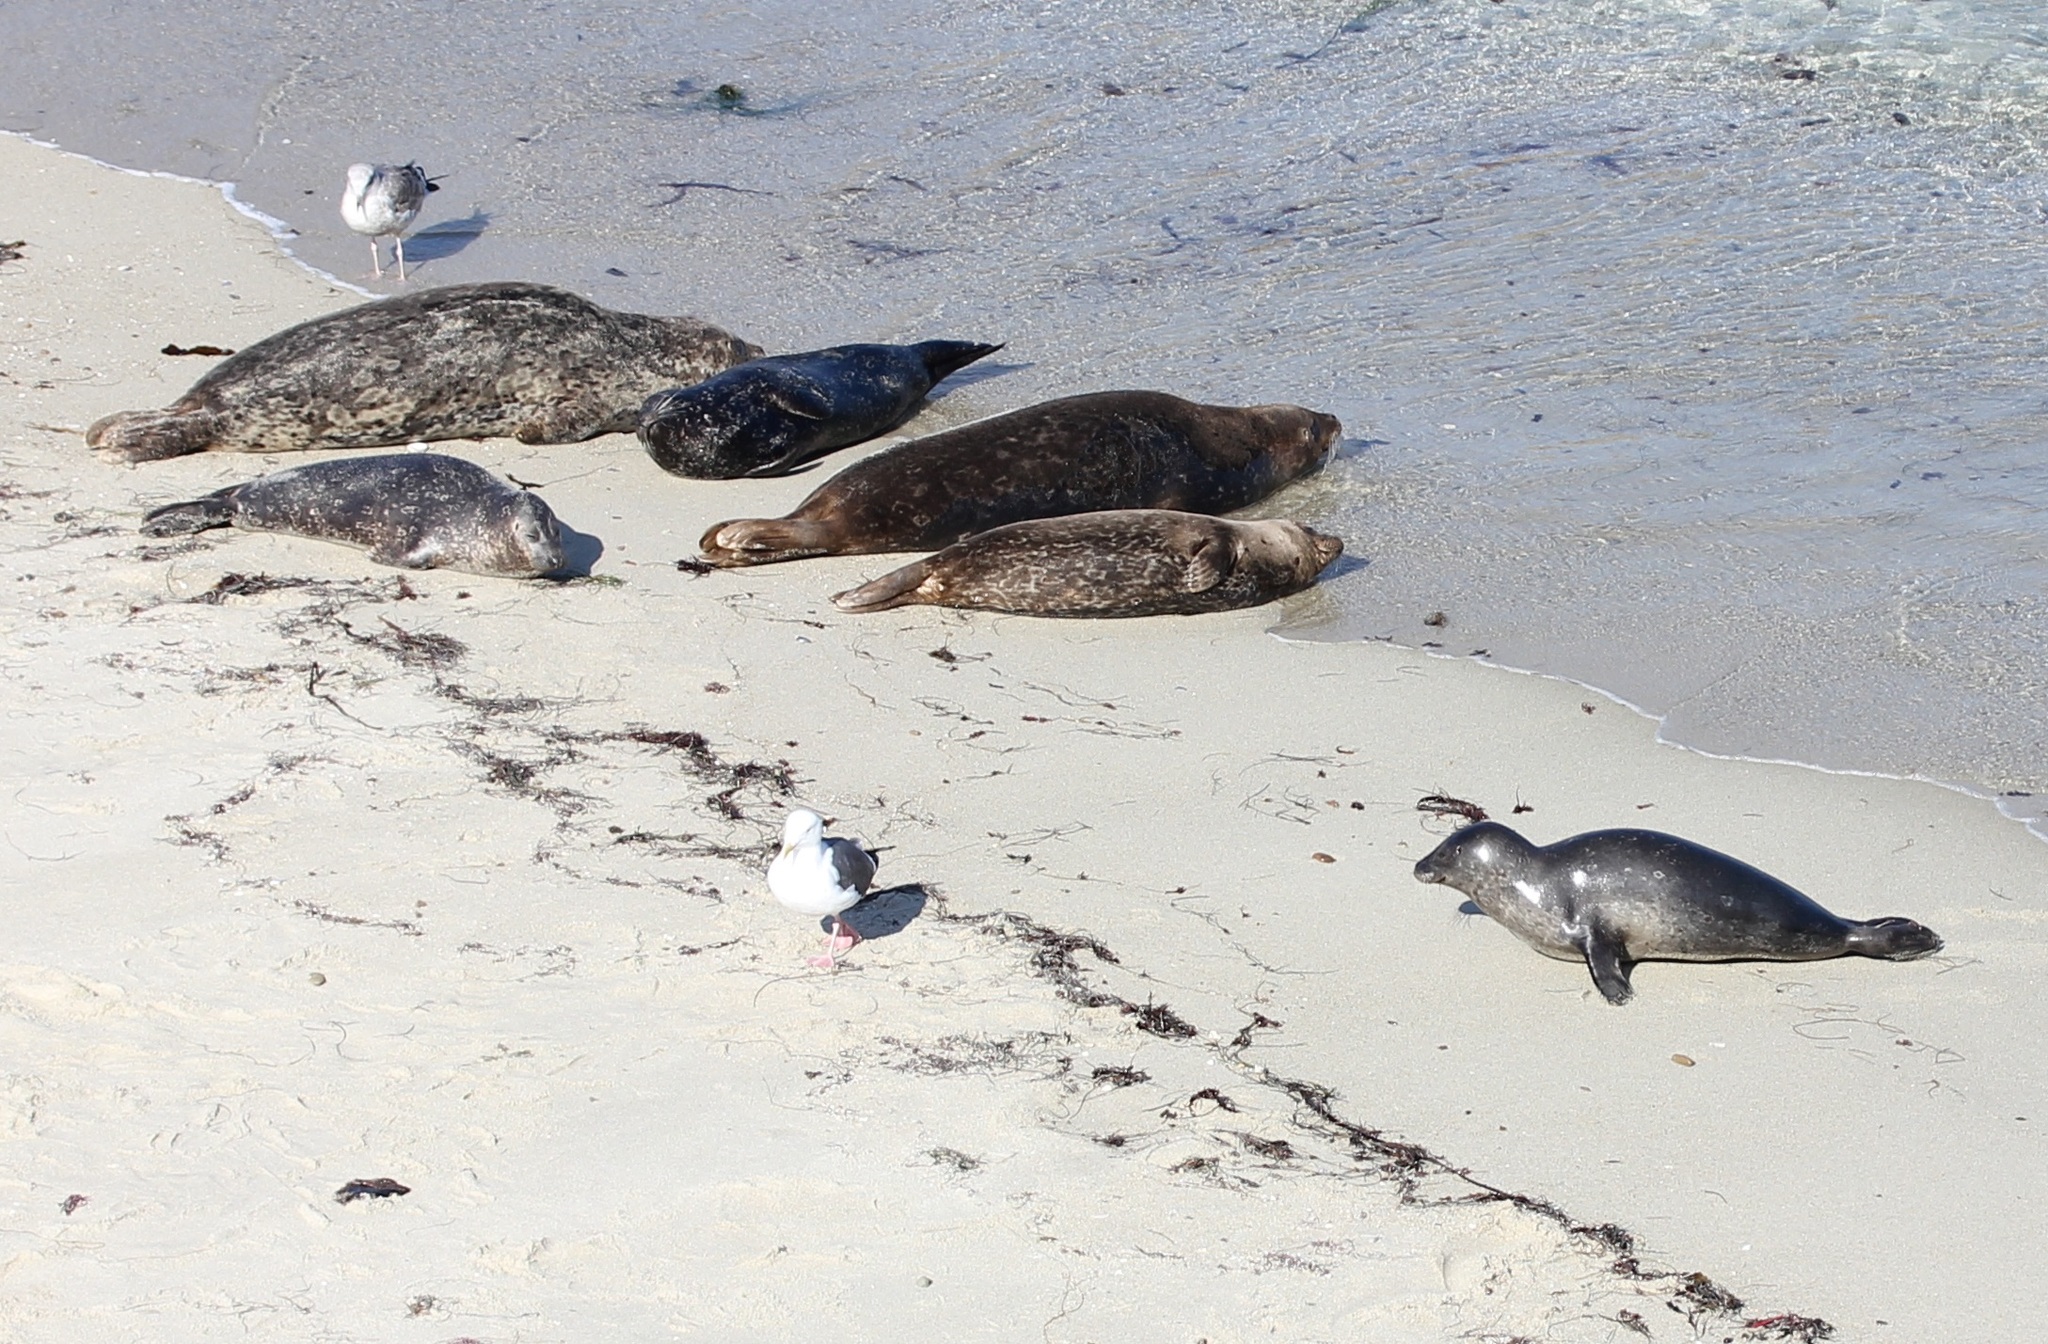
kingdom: Animalia
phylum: Chordata
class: Mammalia
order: Carnivora
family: Phocidae
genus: Phoca
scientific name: Phoca vitulina
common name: Harbor seal
